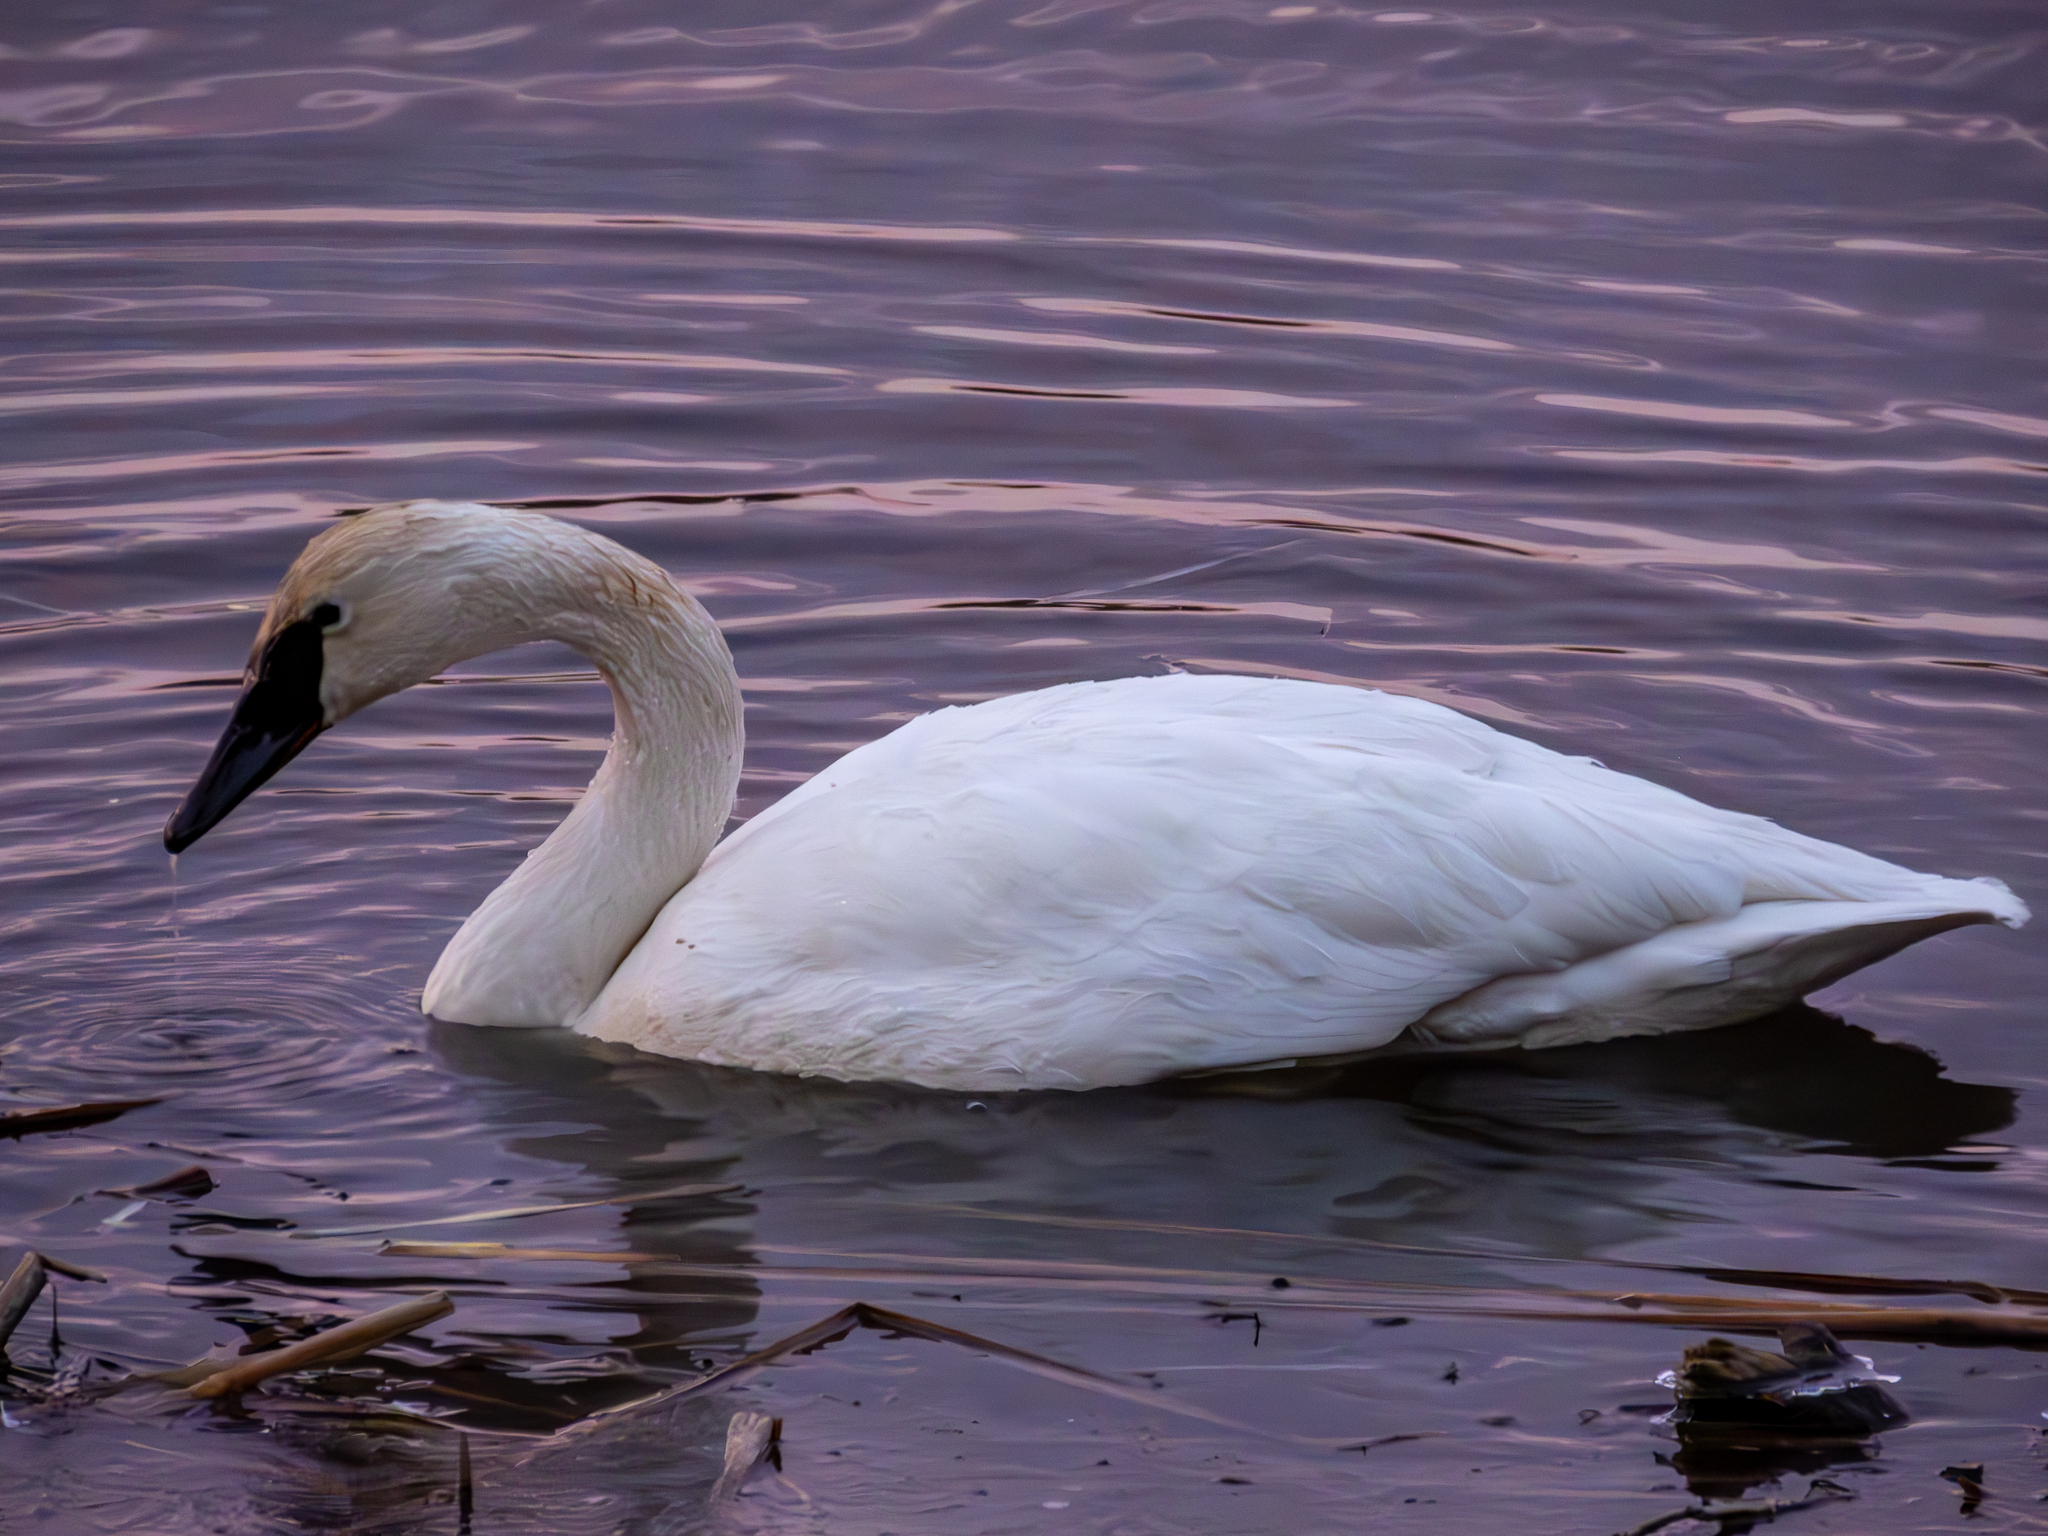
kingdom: Animalia
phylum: Chordata
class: Aves
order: Anseriformes
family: Anatidae
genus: Cygnus
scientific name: Cygnus buccinator
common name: Trumpeter swan
